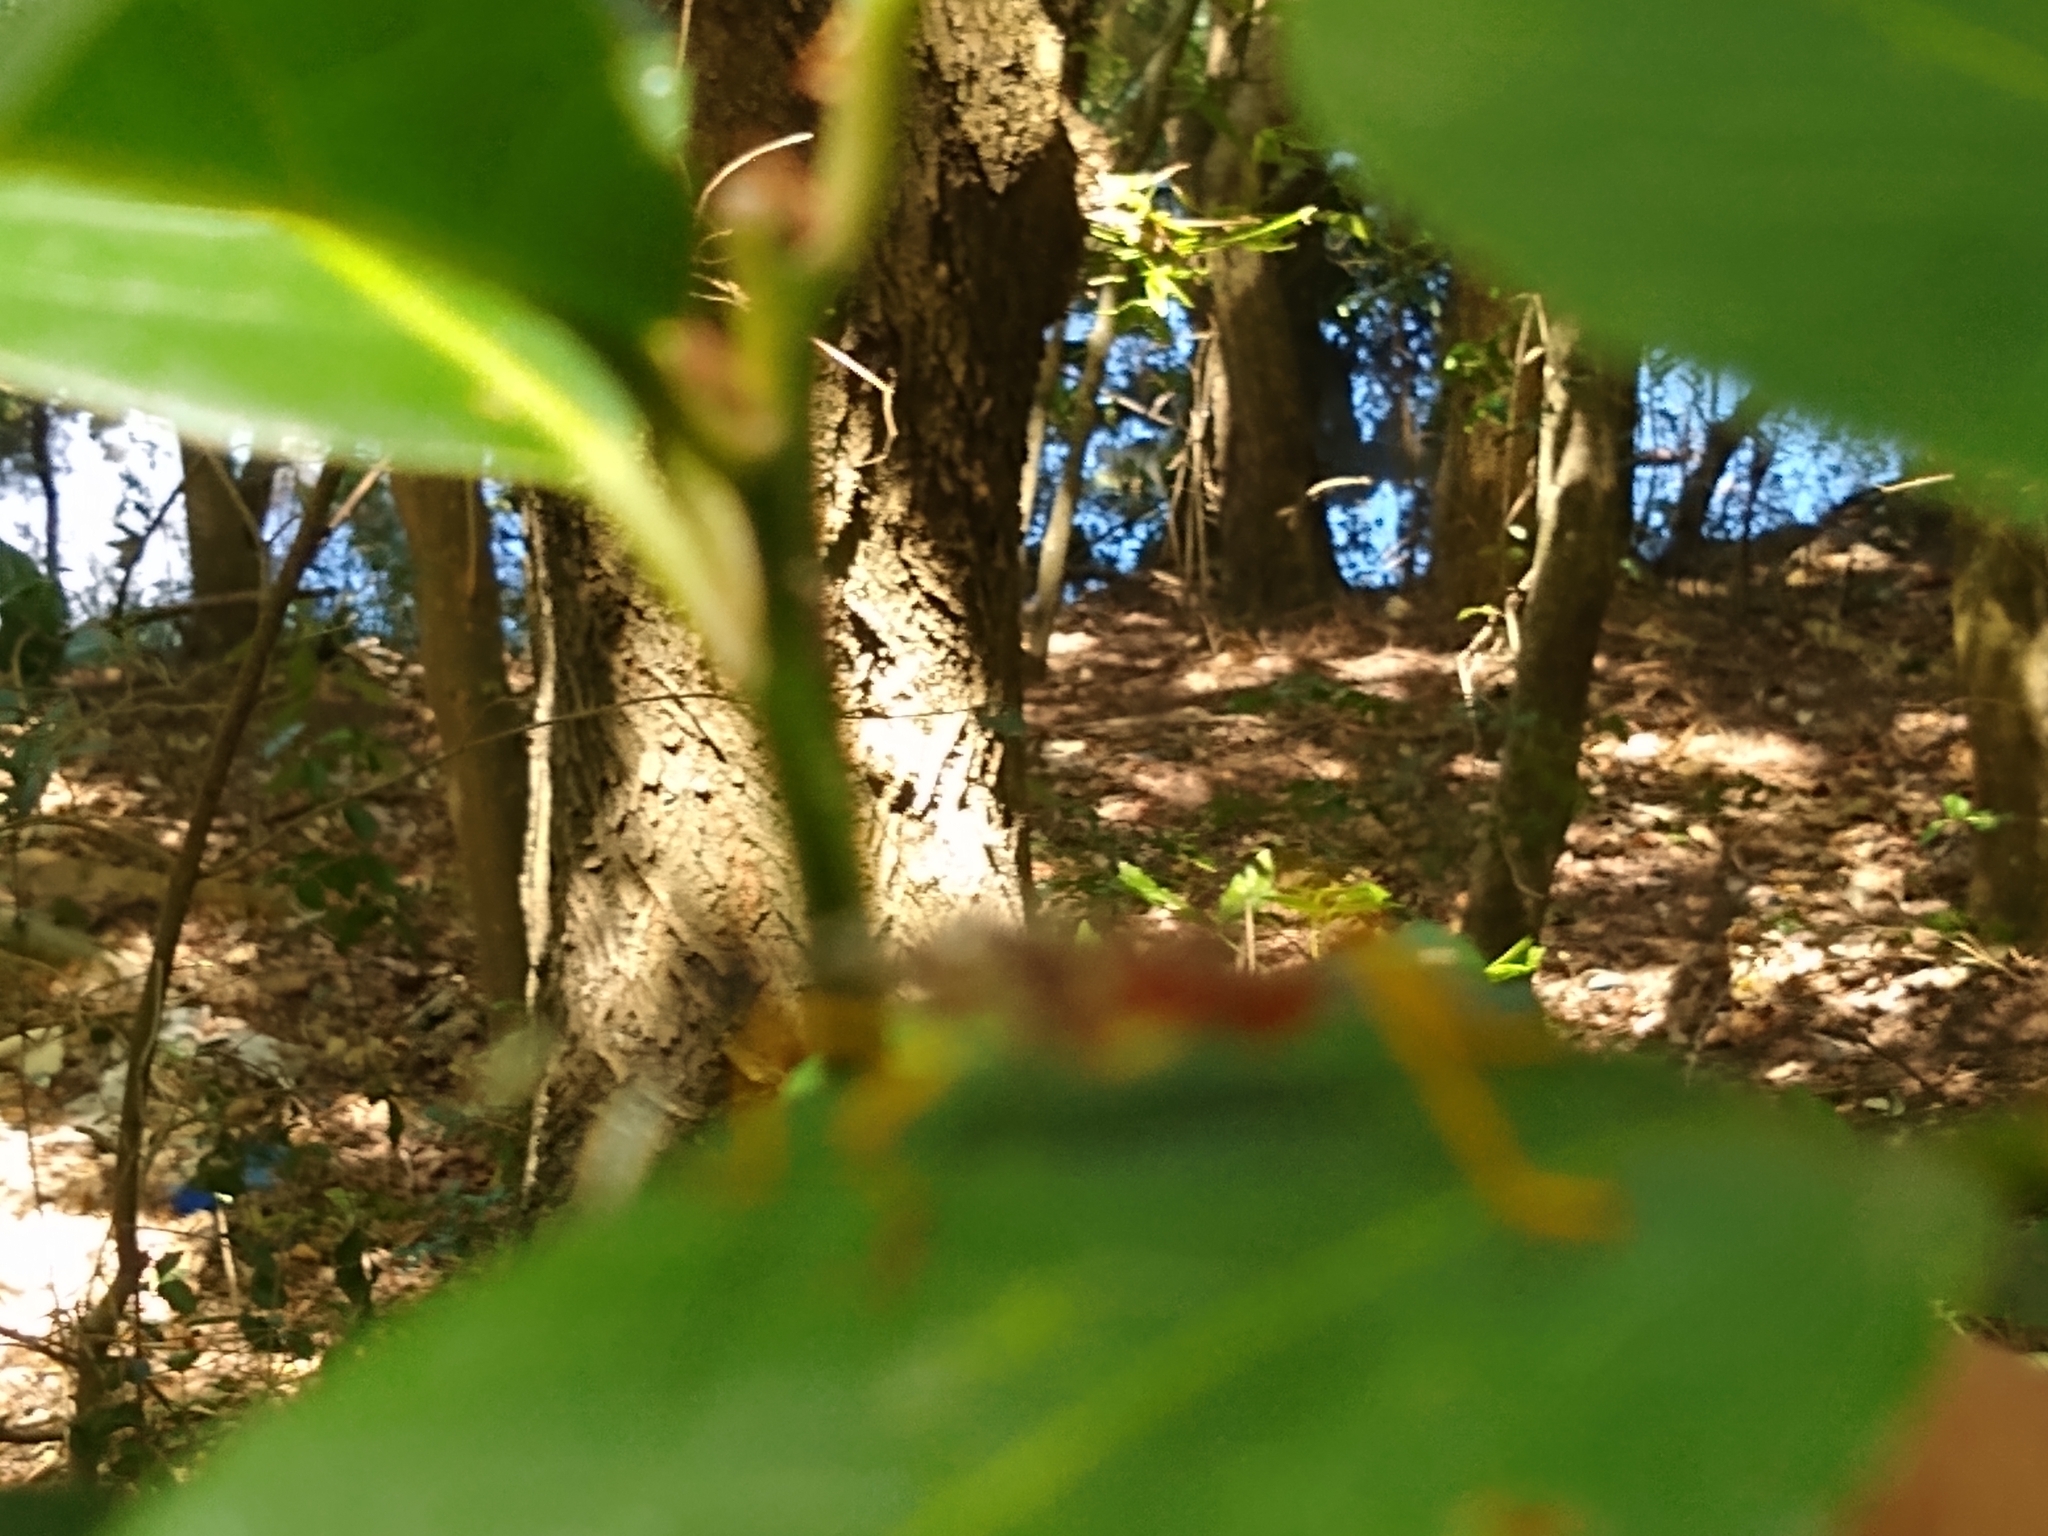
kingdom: Animalia
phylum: Arthropoda
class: Insecta
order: Hemiptera
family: Coreidae
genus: Holhymenia
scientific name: Holhymenia histrio
